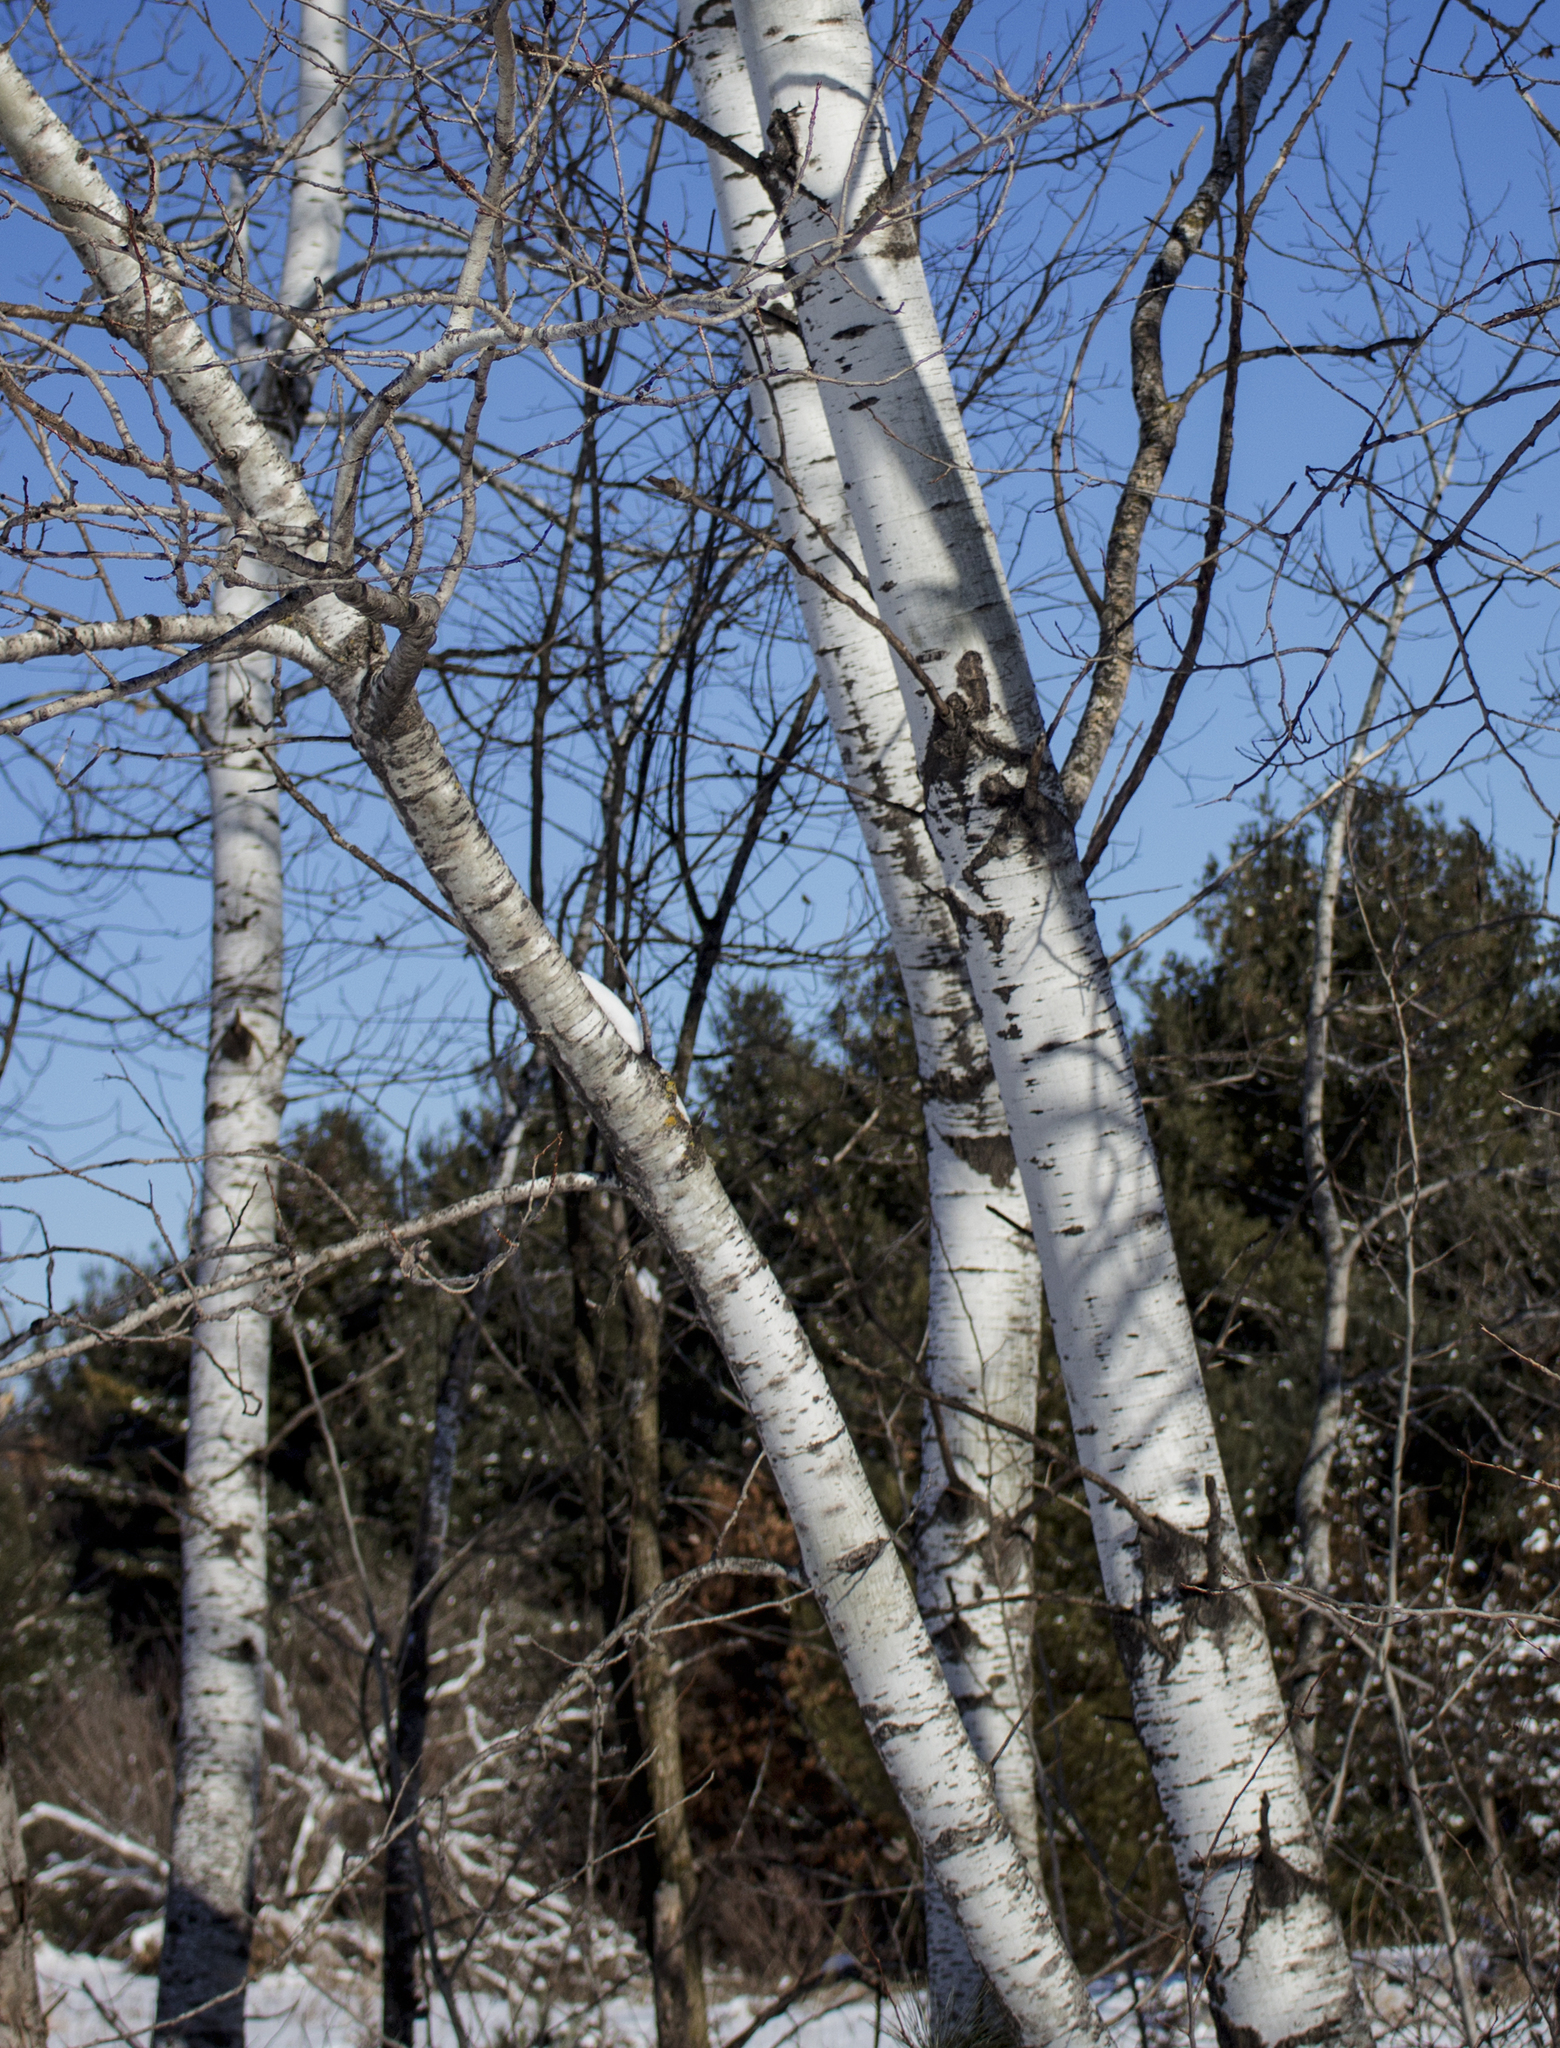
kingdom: Plantae
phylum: Tracheophyta
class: Magnoliopsida
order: Malpighiales
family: Salicaceae
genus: Populus
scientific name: Populus tremuloides
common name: Quaking aspen
